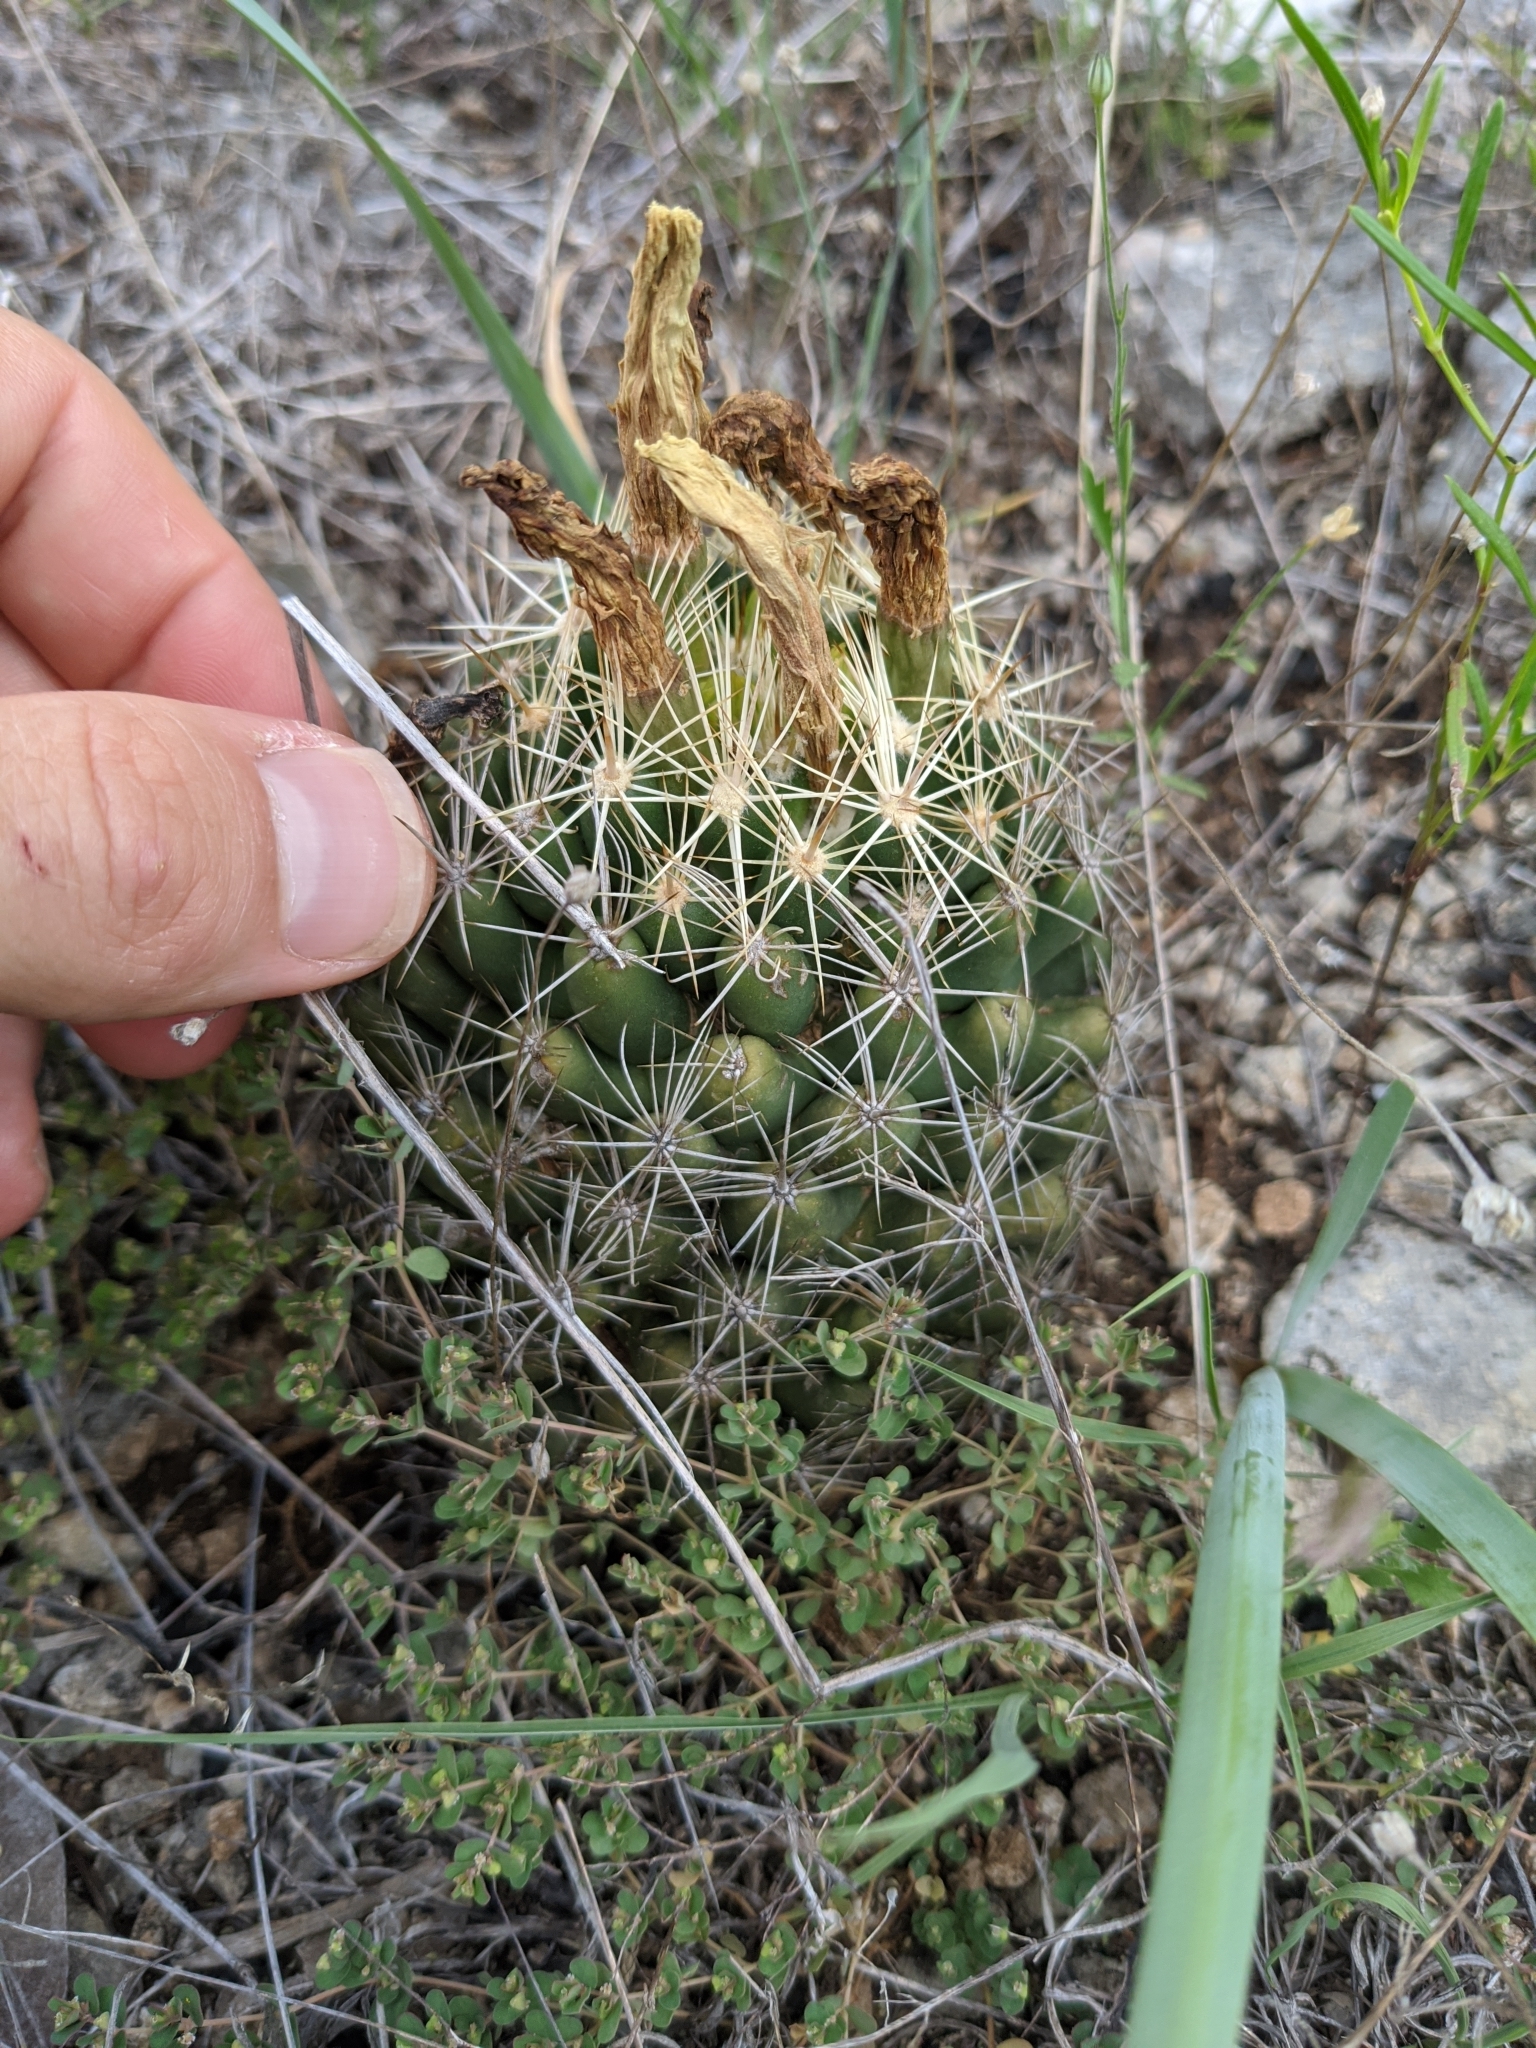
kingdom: Plantae
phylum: Tracheophyta
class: Magnoliopsida
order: Caryophyllales
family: Cactaceae
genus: Coryphantha
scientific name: Coryphantha sulcata
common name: Finger cactus
